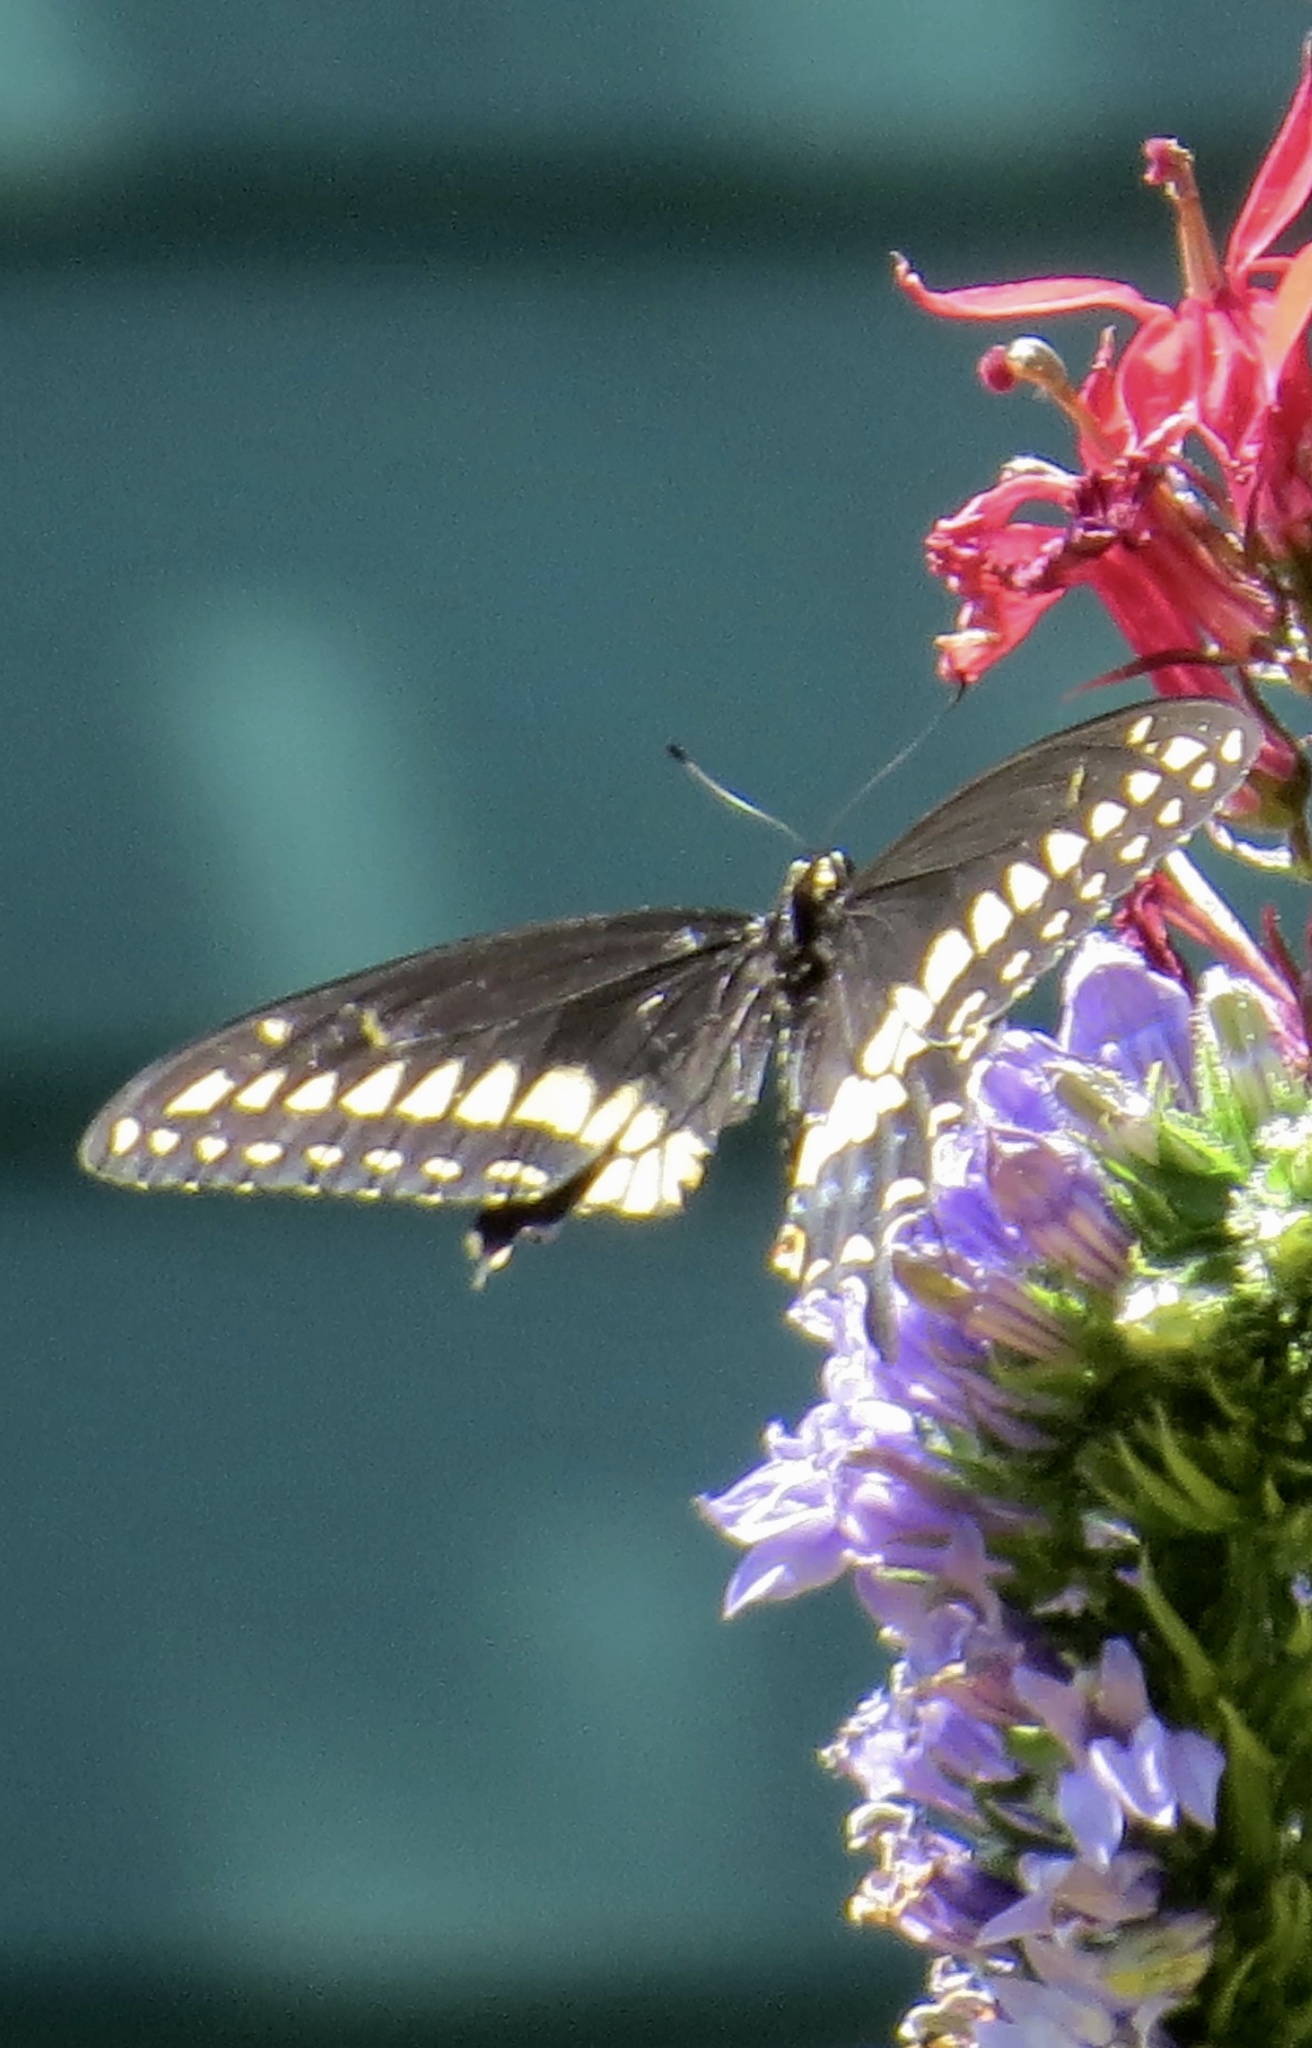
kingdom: Animalia
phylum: Arthropoda
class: Insecta
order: Lepidoptera
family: Papilionidae
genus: Papilio
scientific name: Papilio polyxenes
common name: Black swallowtail
